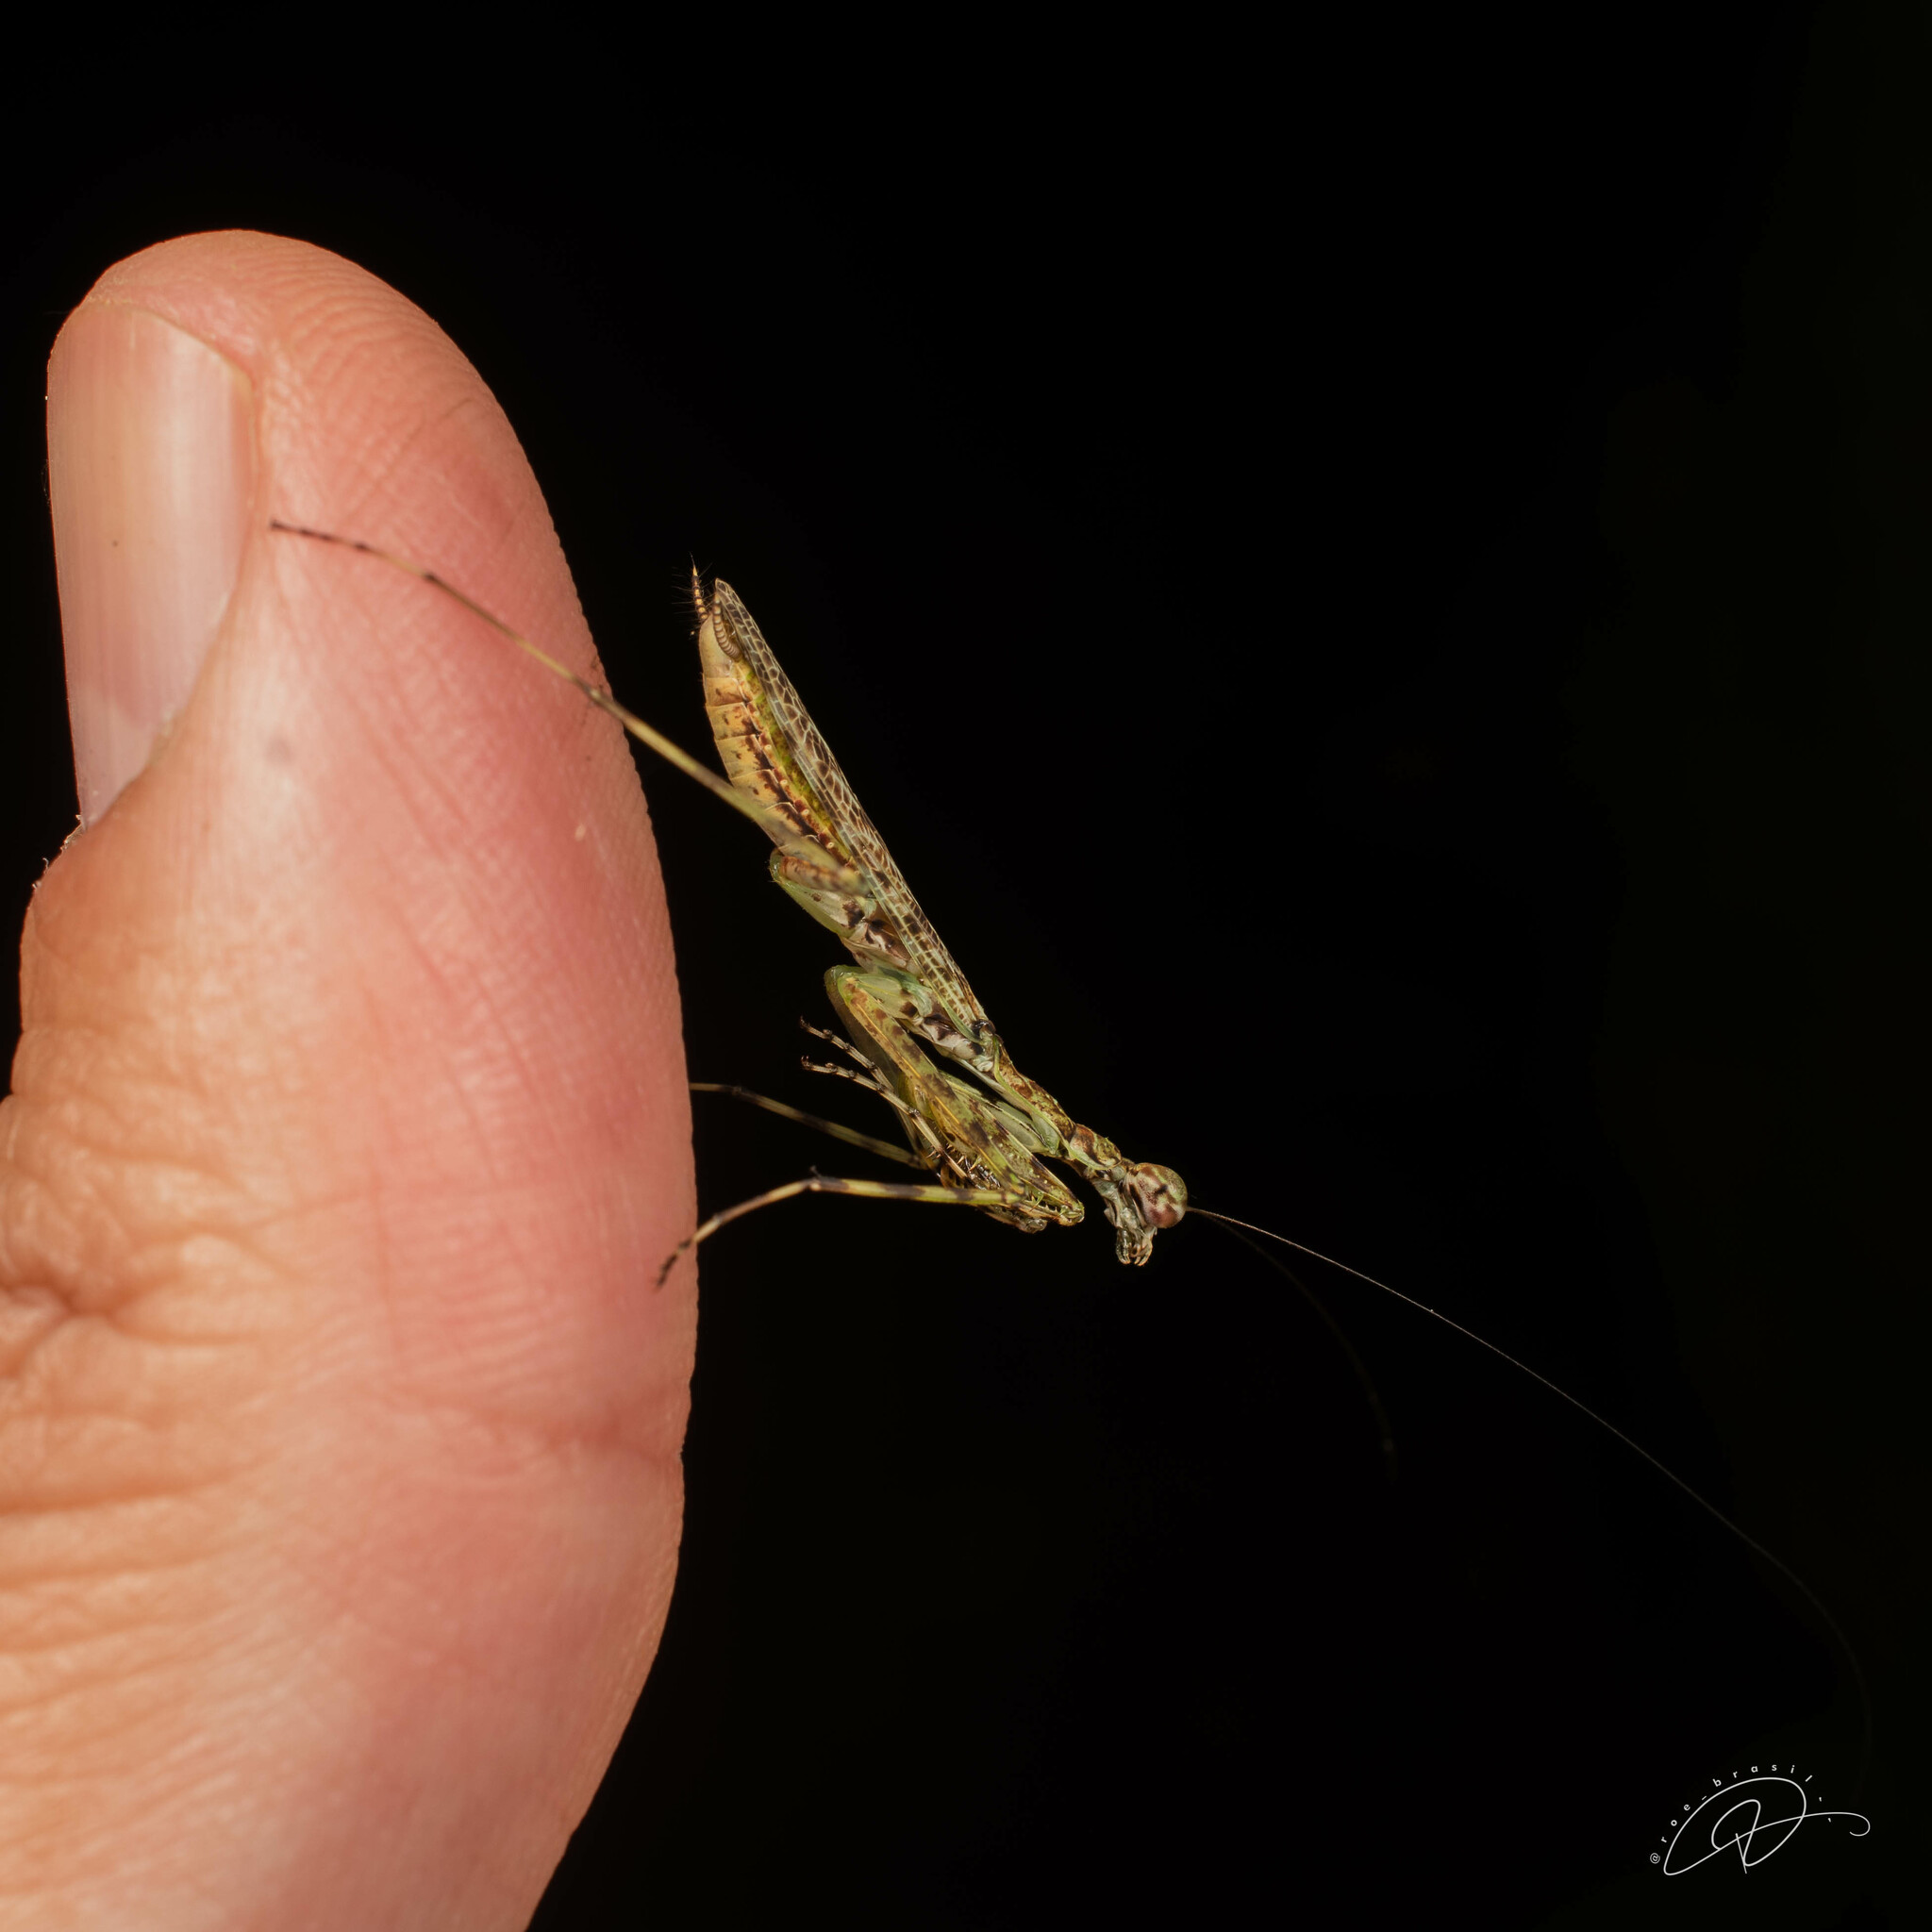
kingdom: Animalia
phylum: Arthropoda
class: Insecta
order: Mantodea
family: Liturgusidae
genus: Fuga
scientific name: Fuga annulipes
